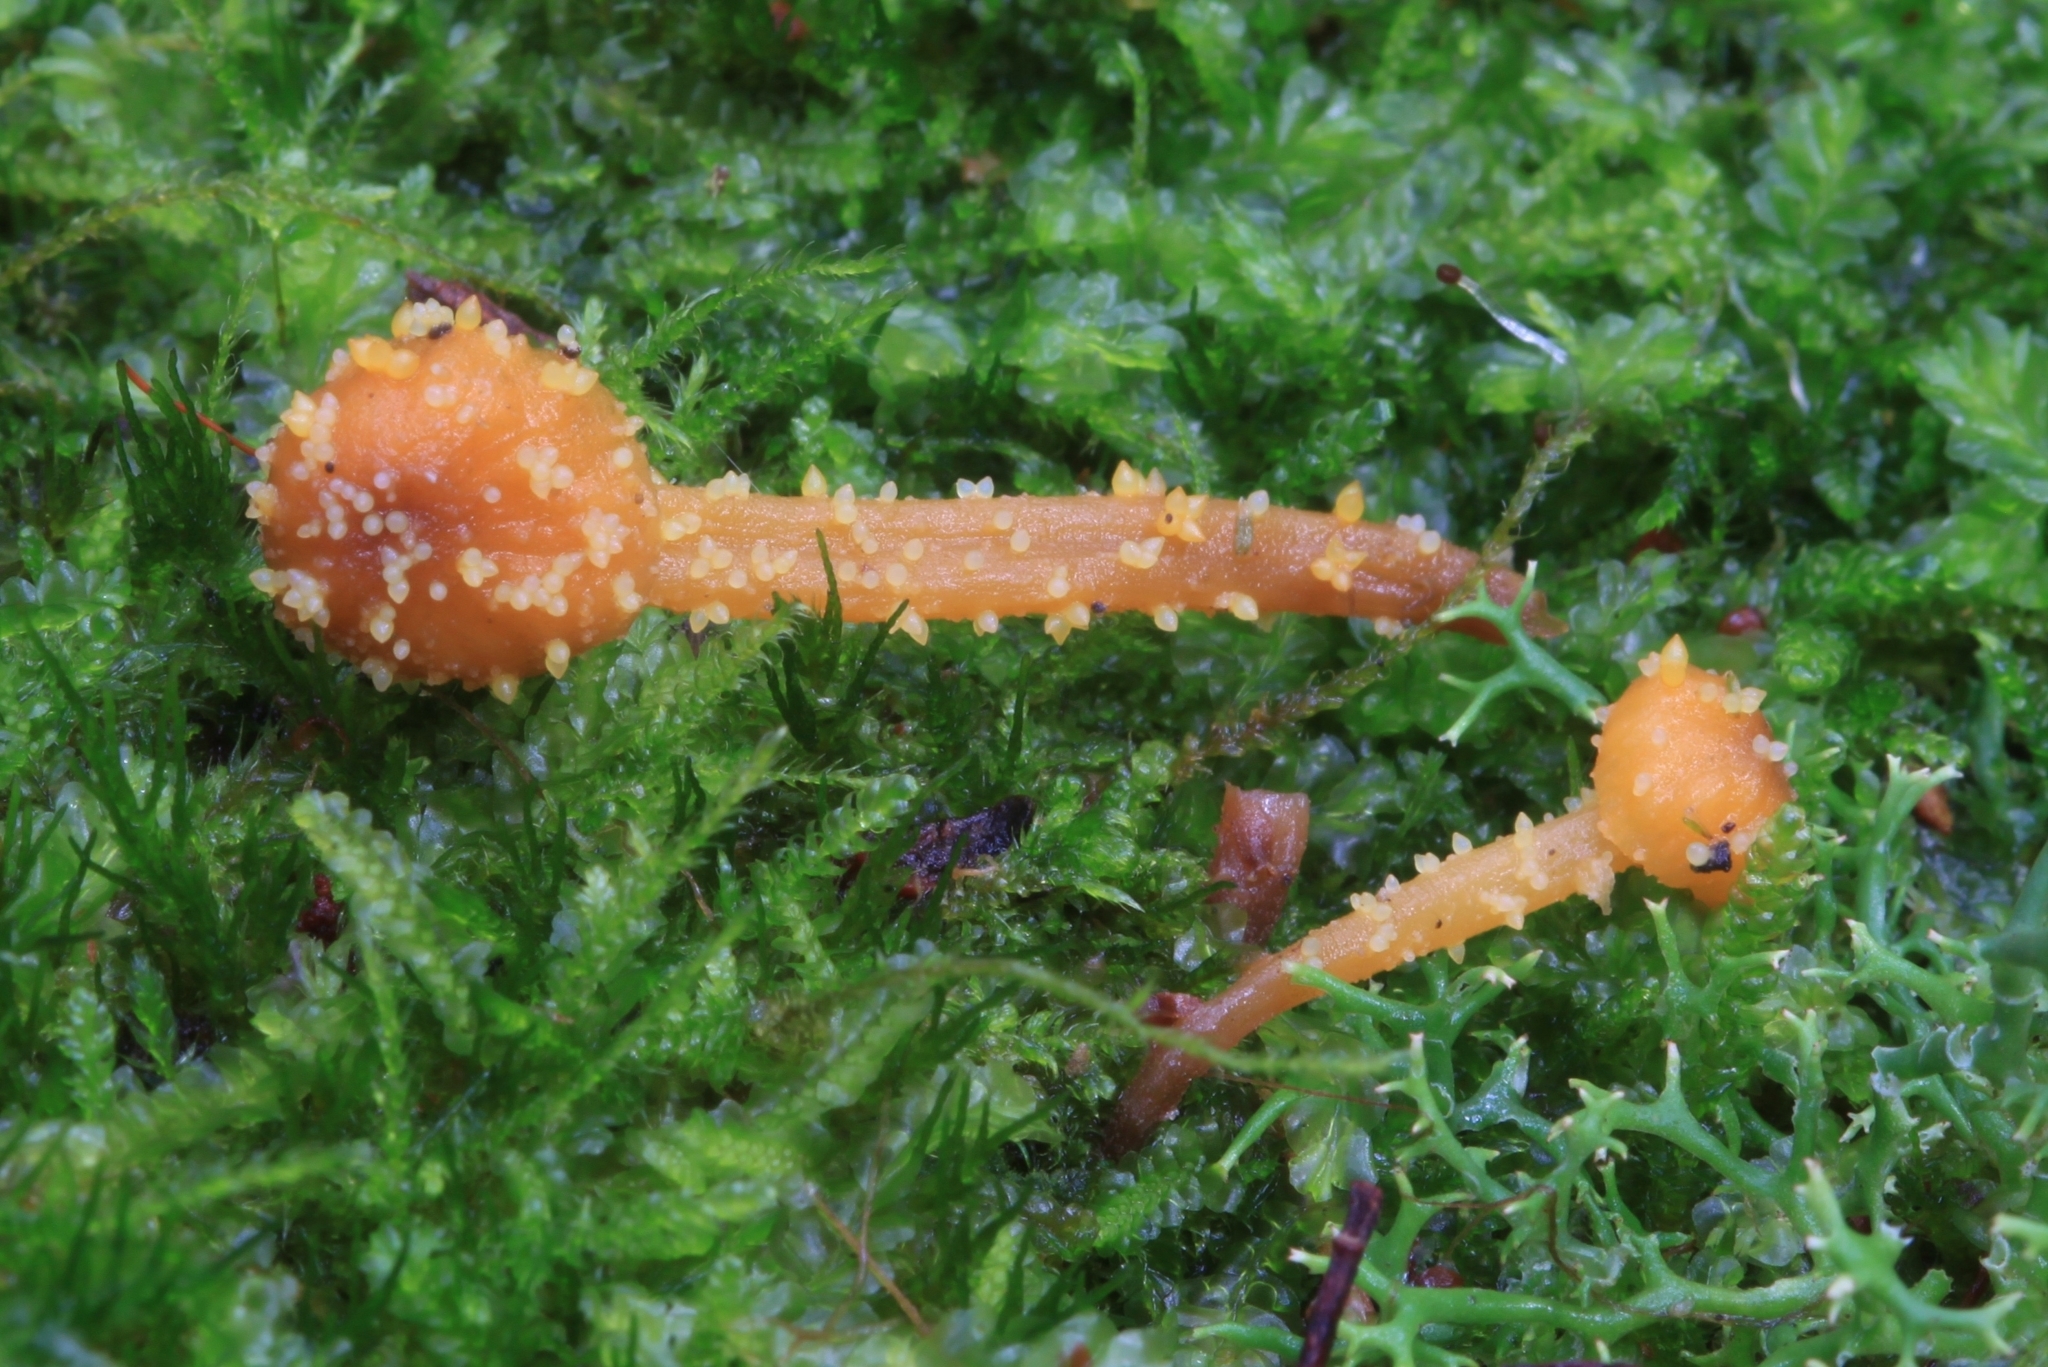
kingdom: Fungi
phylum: Ascomycota
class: Sordariomycetes
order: Hypocreales
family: Clavicipitaceae
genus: Neobarya
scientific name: Neobarya agaricicola
